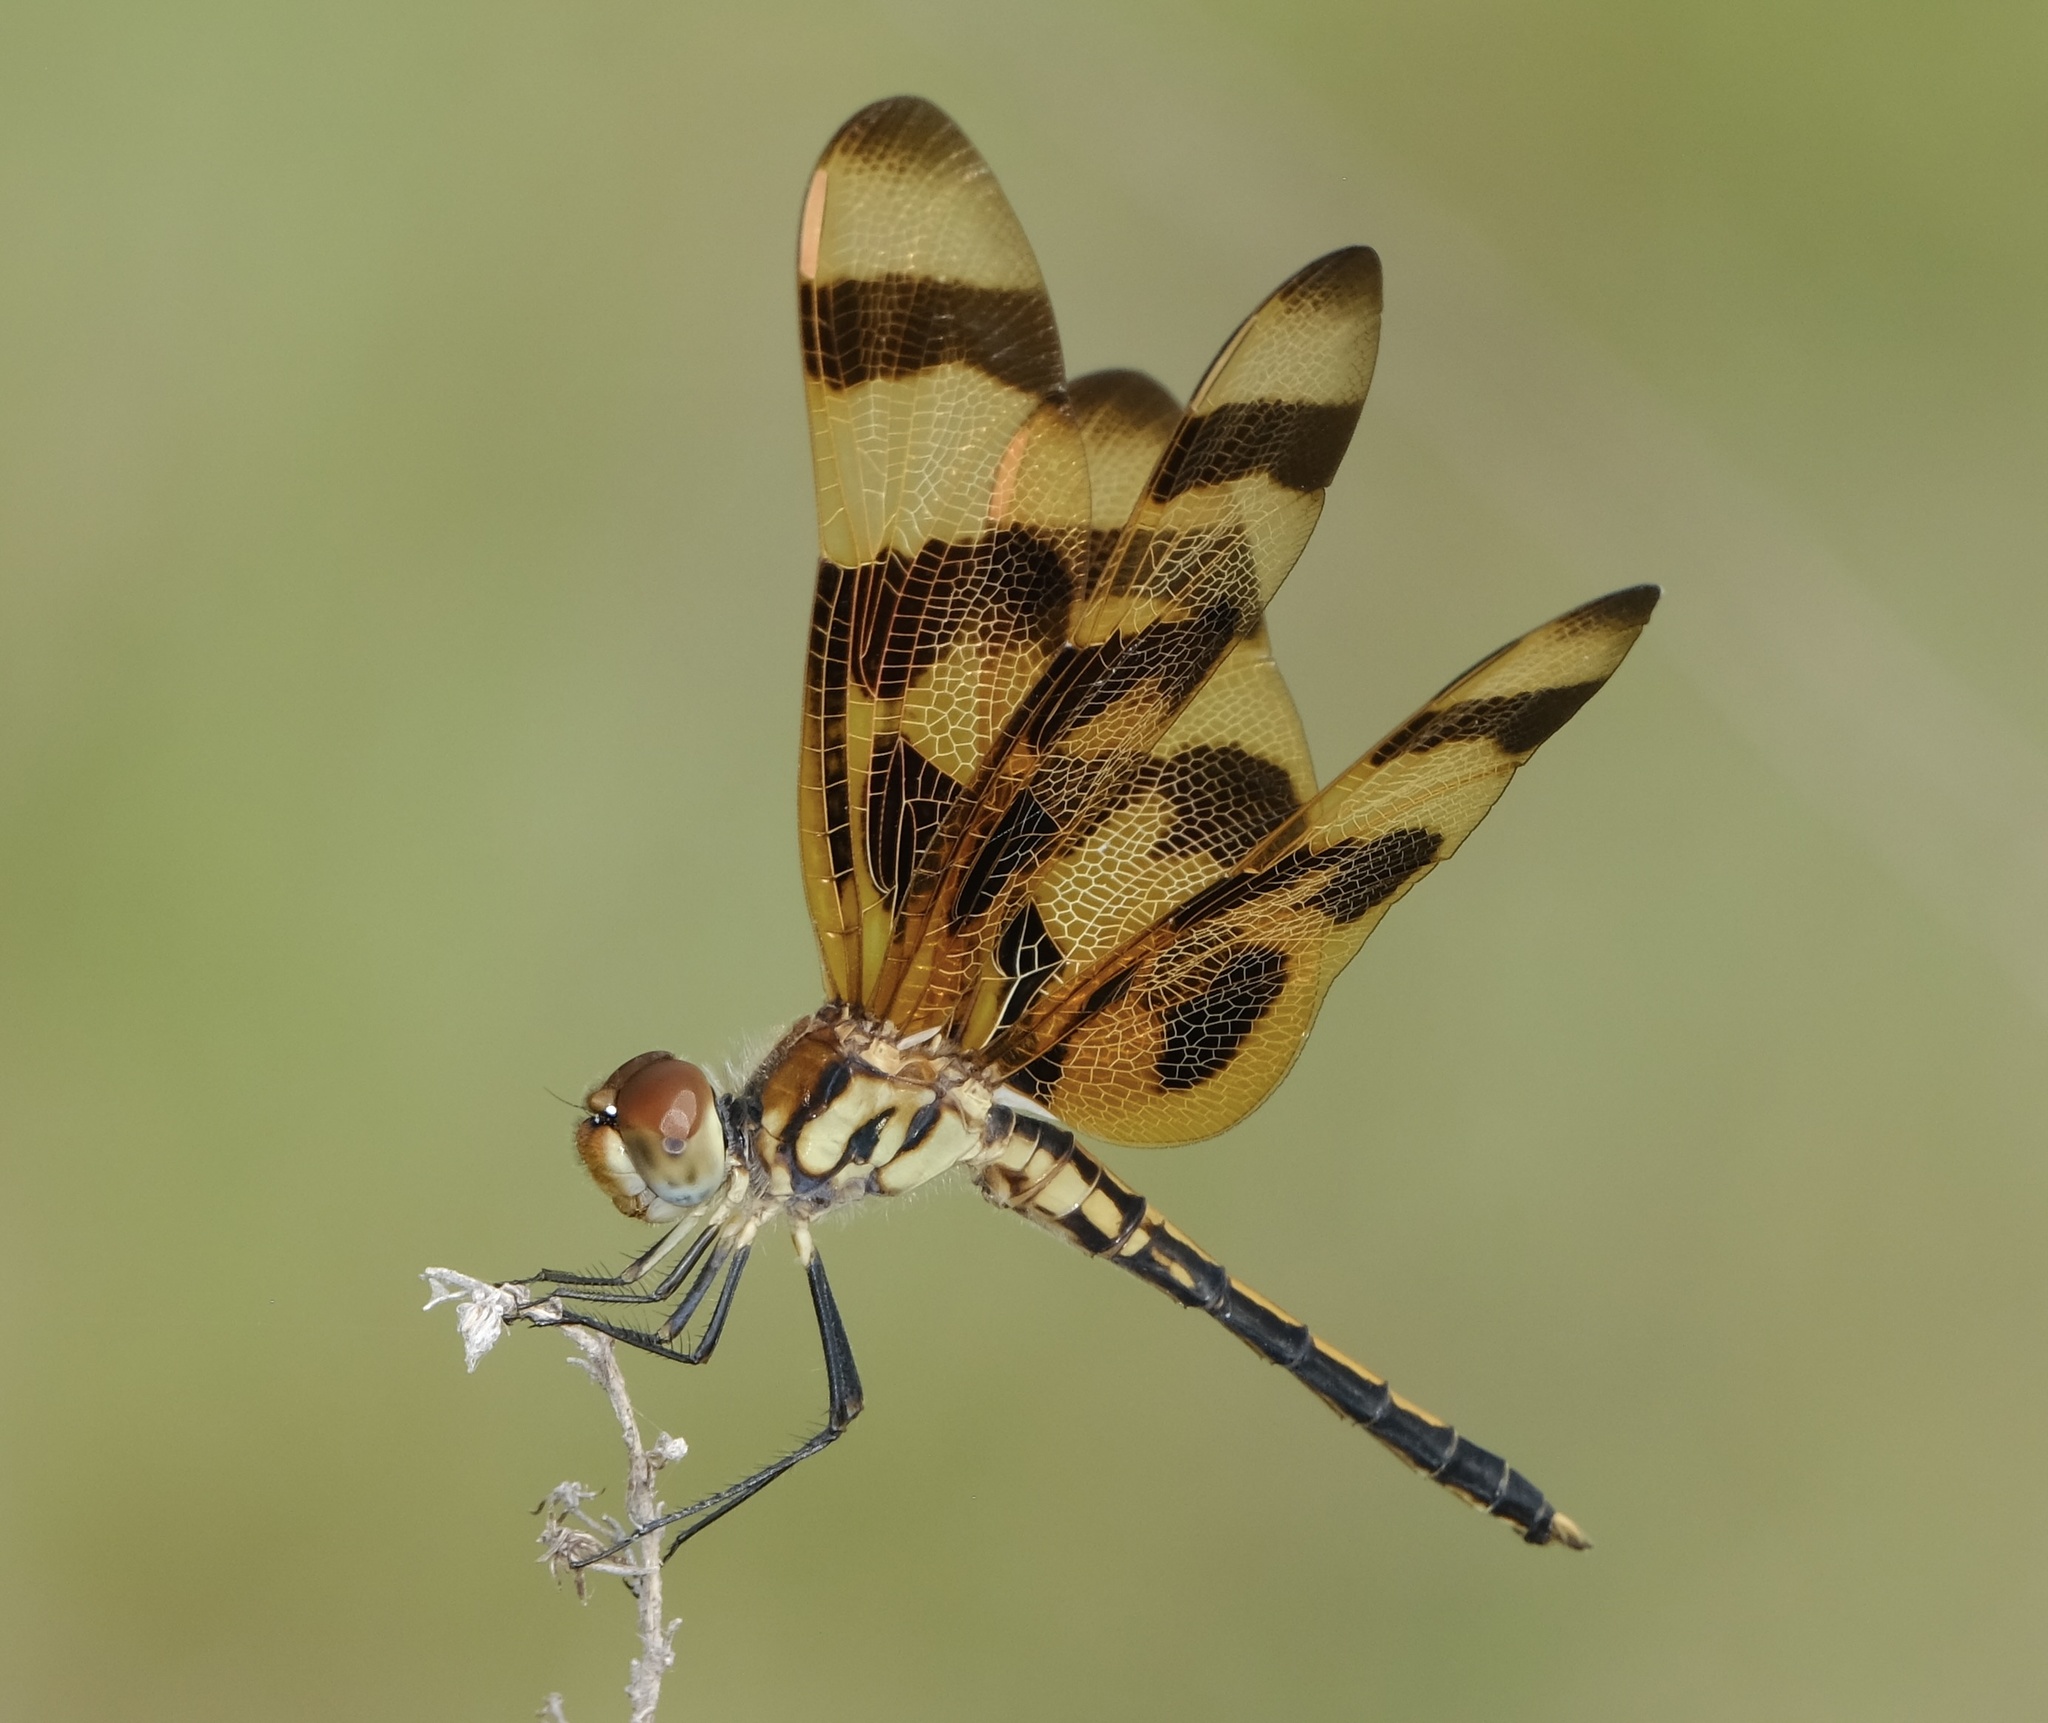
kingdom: Animalia
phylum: Arthropoda
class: Insecta
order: Odonata
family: Libellulidae
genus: Celithemis
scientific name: Celithemis eponina
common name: Halloween pennant
